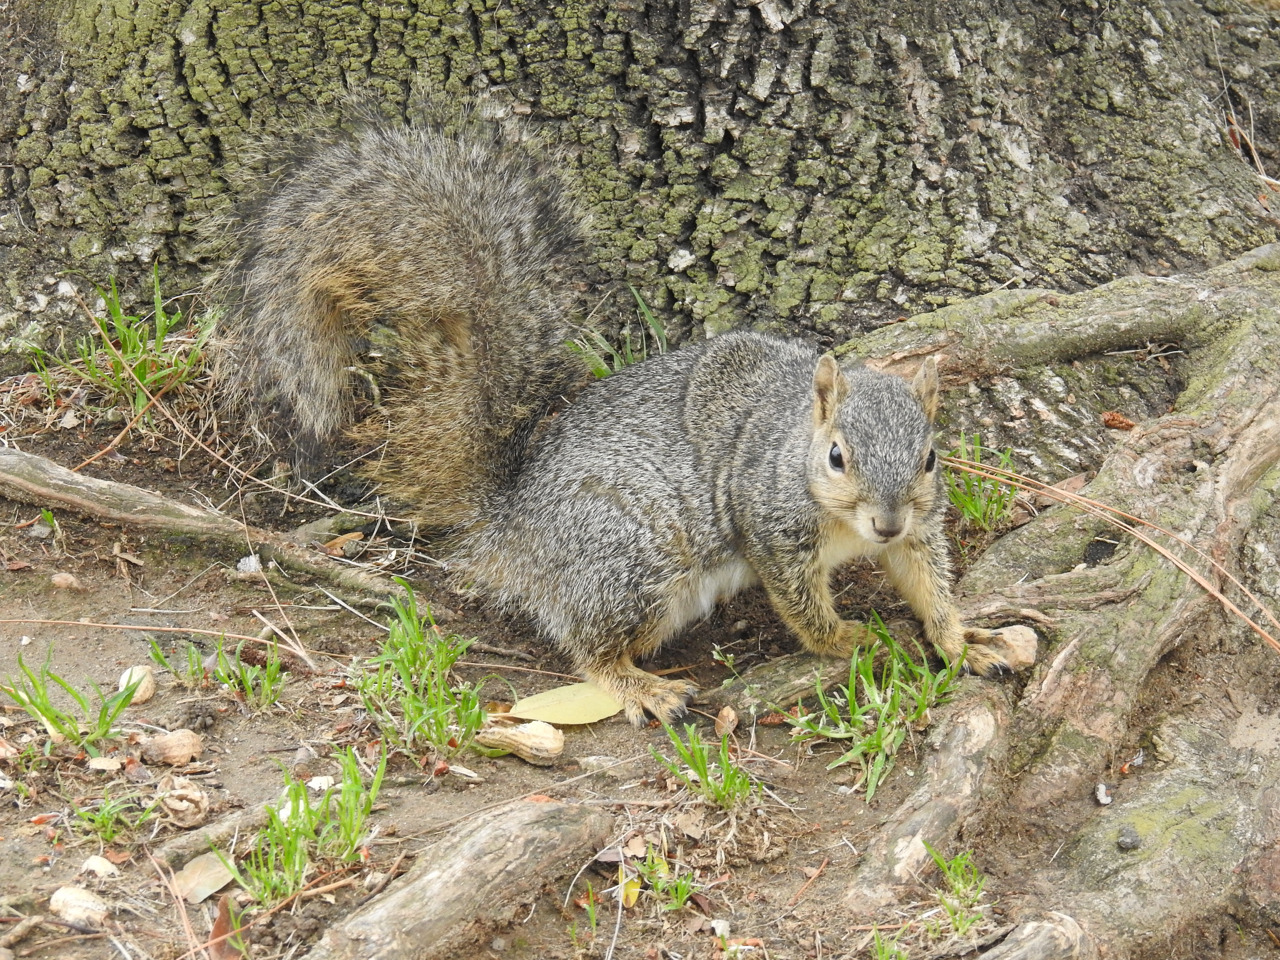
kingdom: Animalia
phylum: Chordata
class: Mammalia
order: Rodentia
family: Sciuridae
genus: Sciurus
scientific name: Sciurus niger
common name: Fox squirrel
